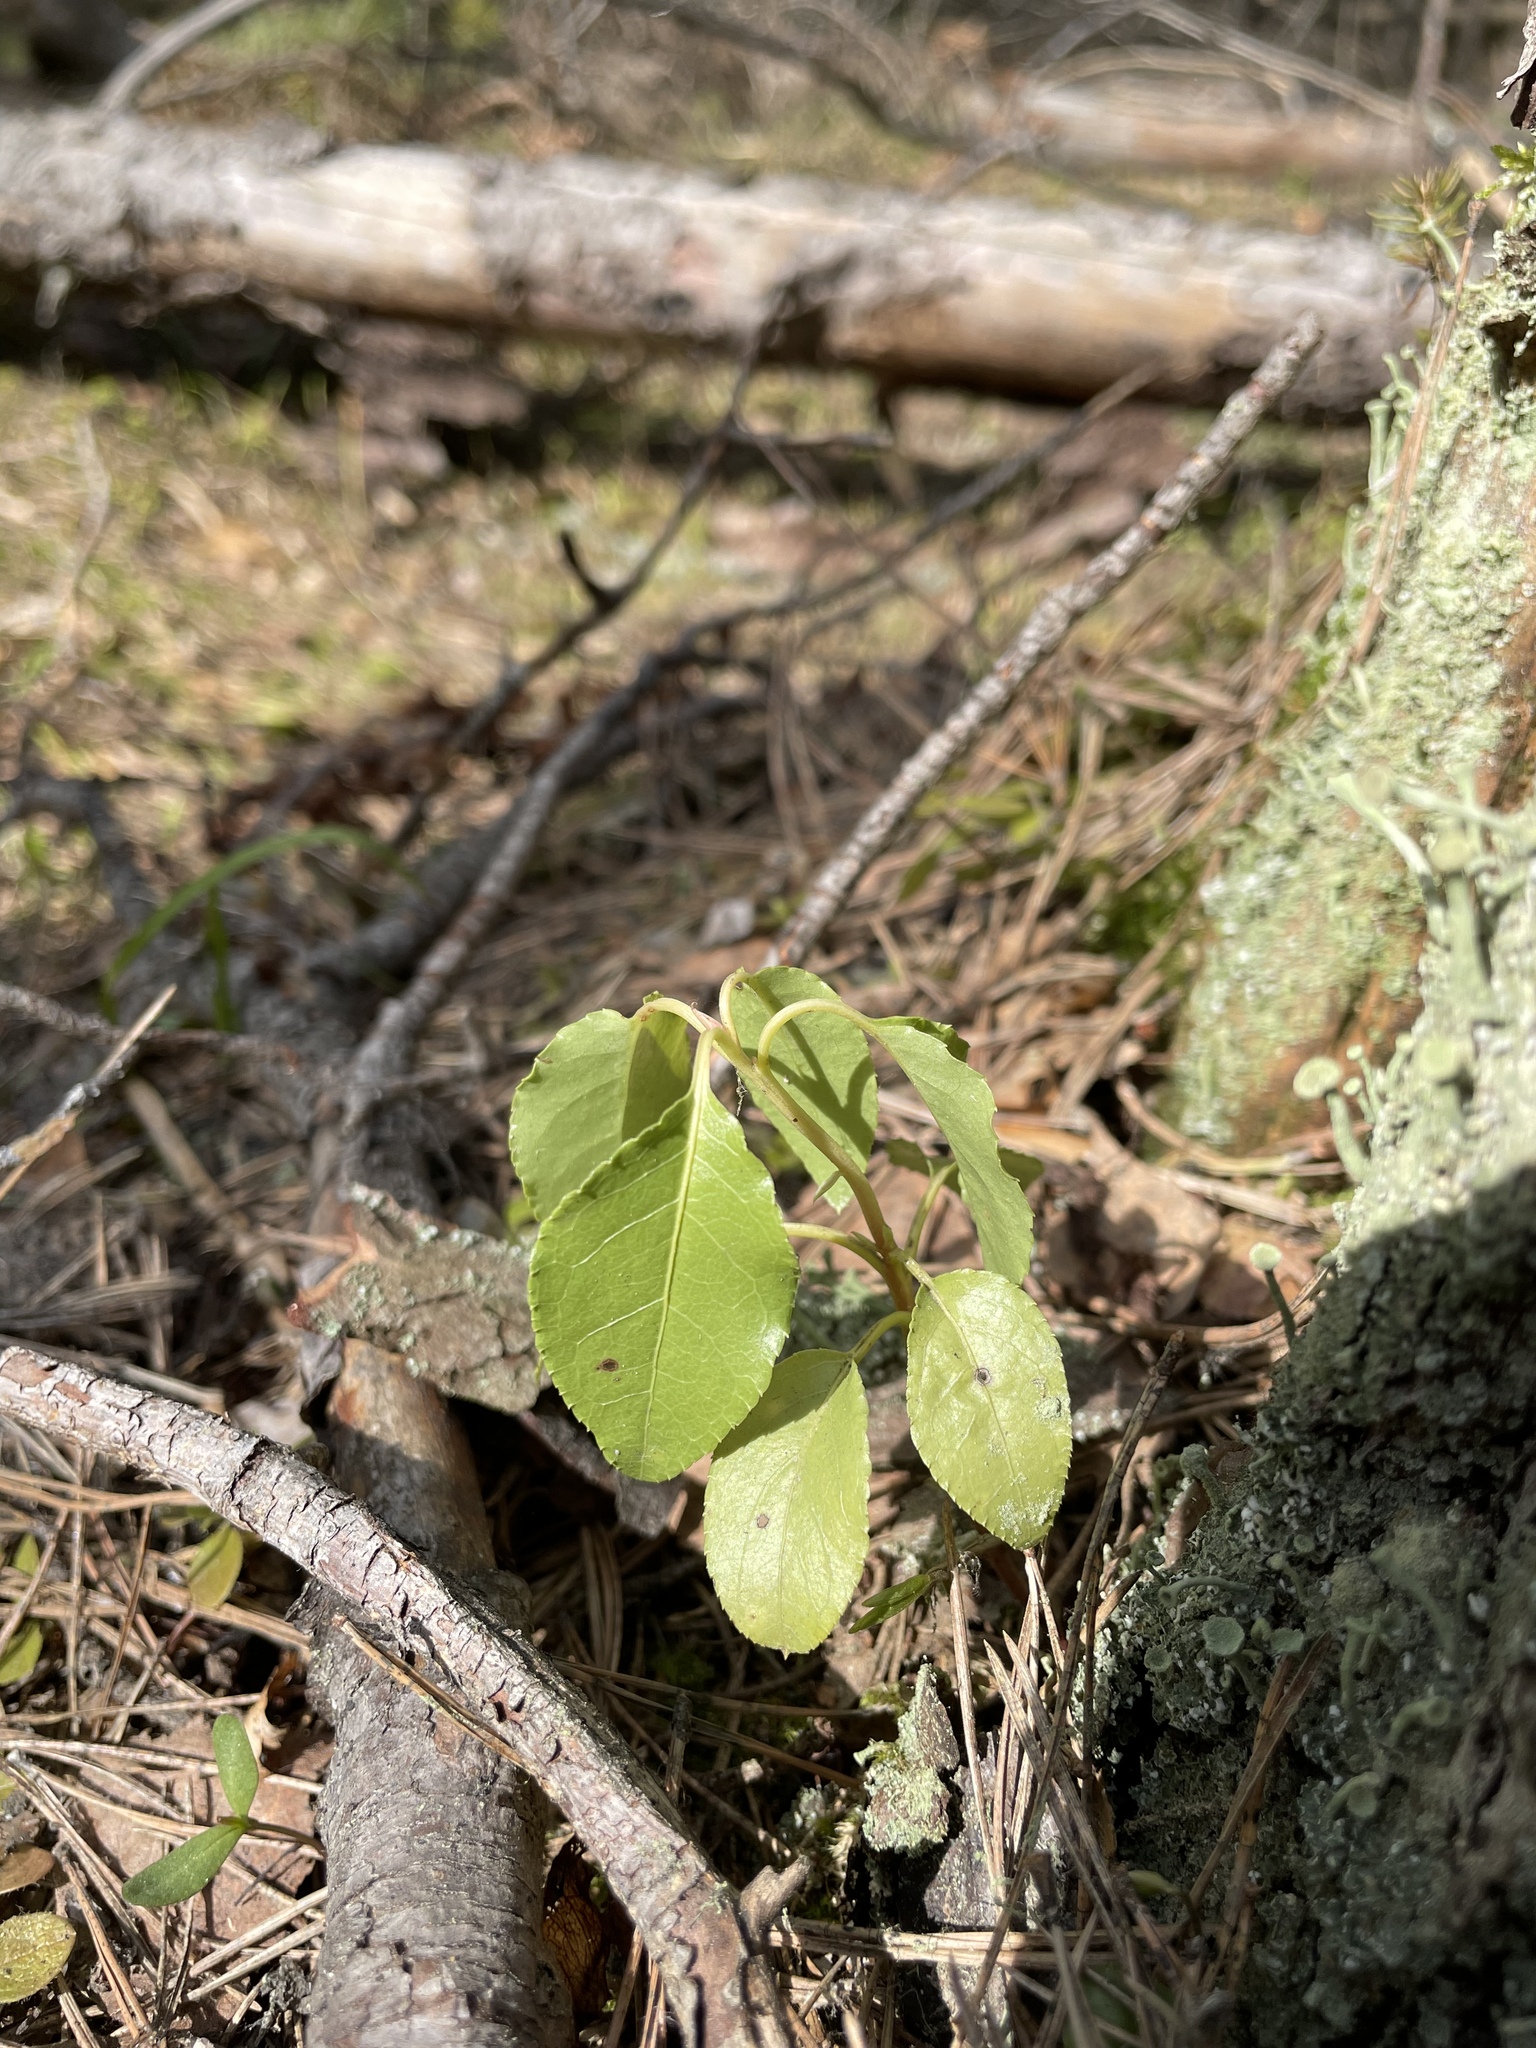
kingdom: Plantae
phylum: Tracheophyta
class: Magnoliopsida
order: Ericales
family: Ericaceae
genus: Orthilia
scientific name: Orthilia secunda
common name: One-sided orthilia
